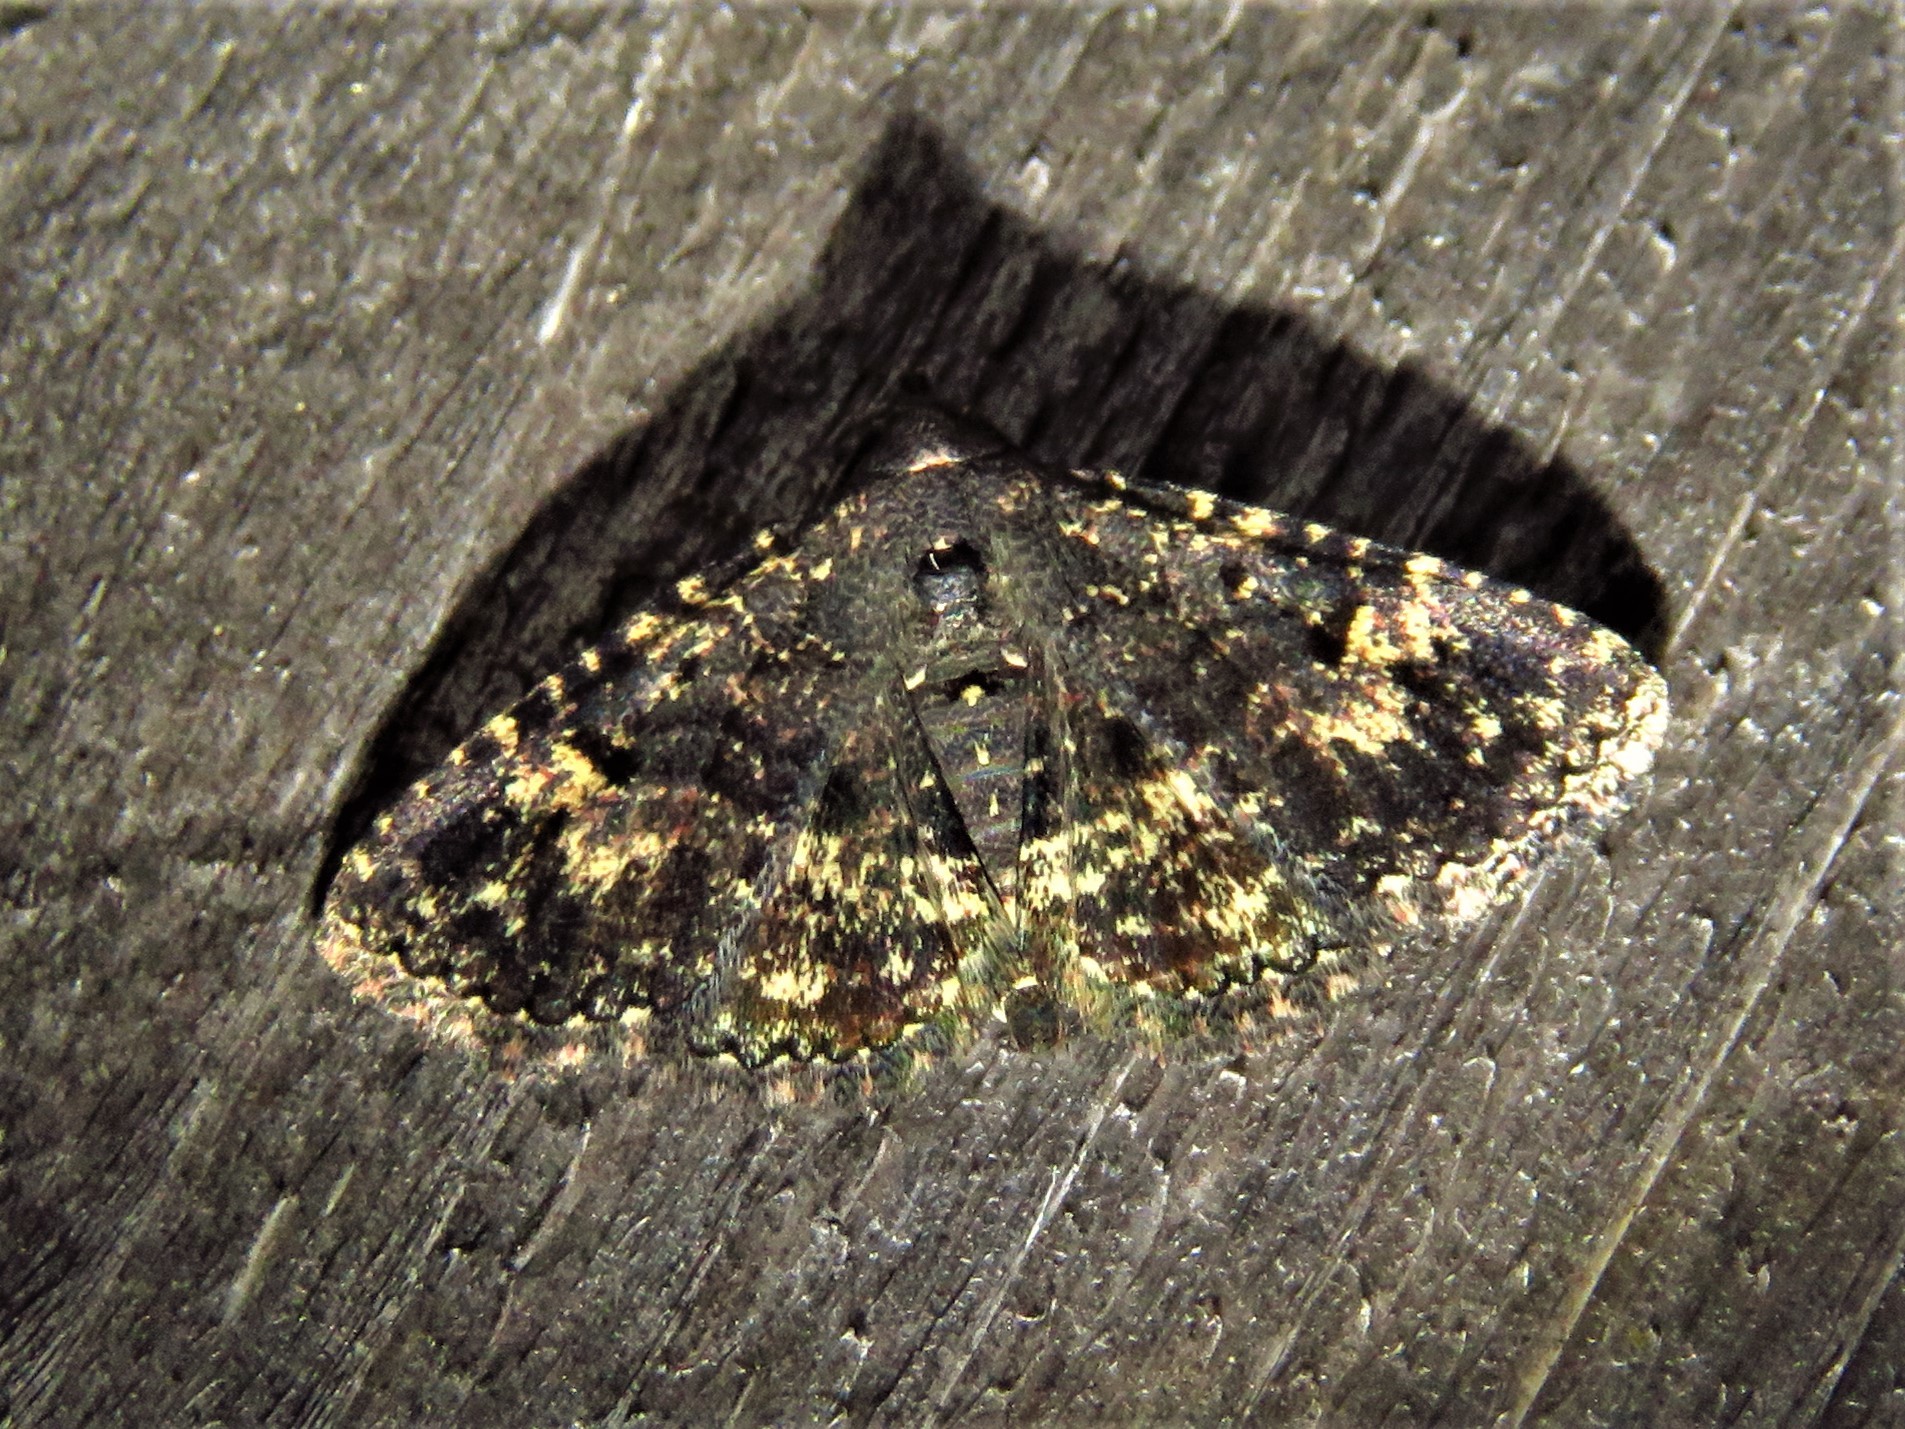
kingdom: Animalia
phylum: Arthropoda
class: Insecta
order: Lepidoptera
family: Erebidae
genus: Metalectra
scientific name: Metalectra diabolica
